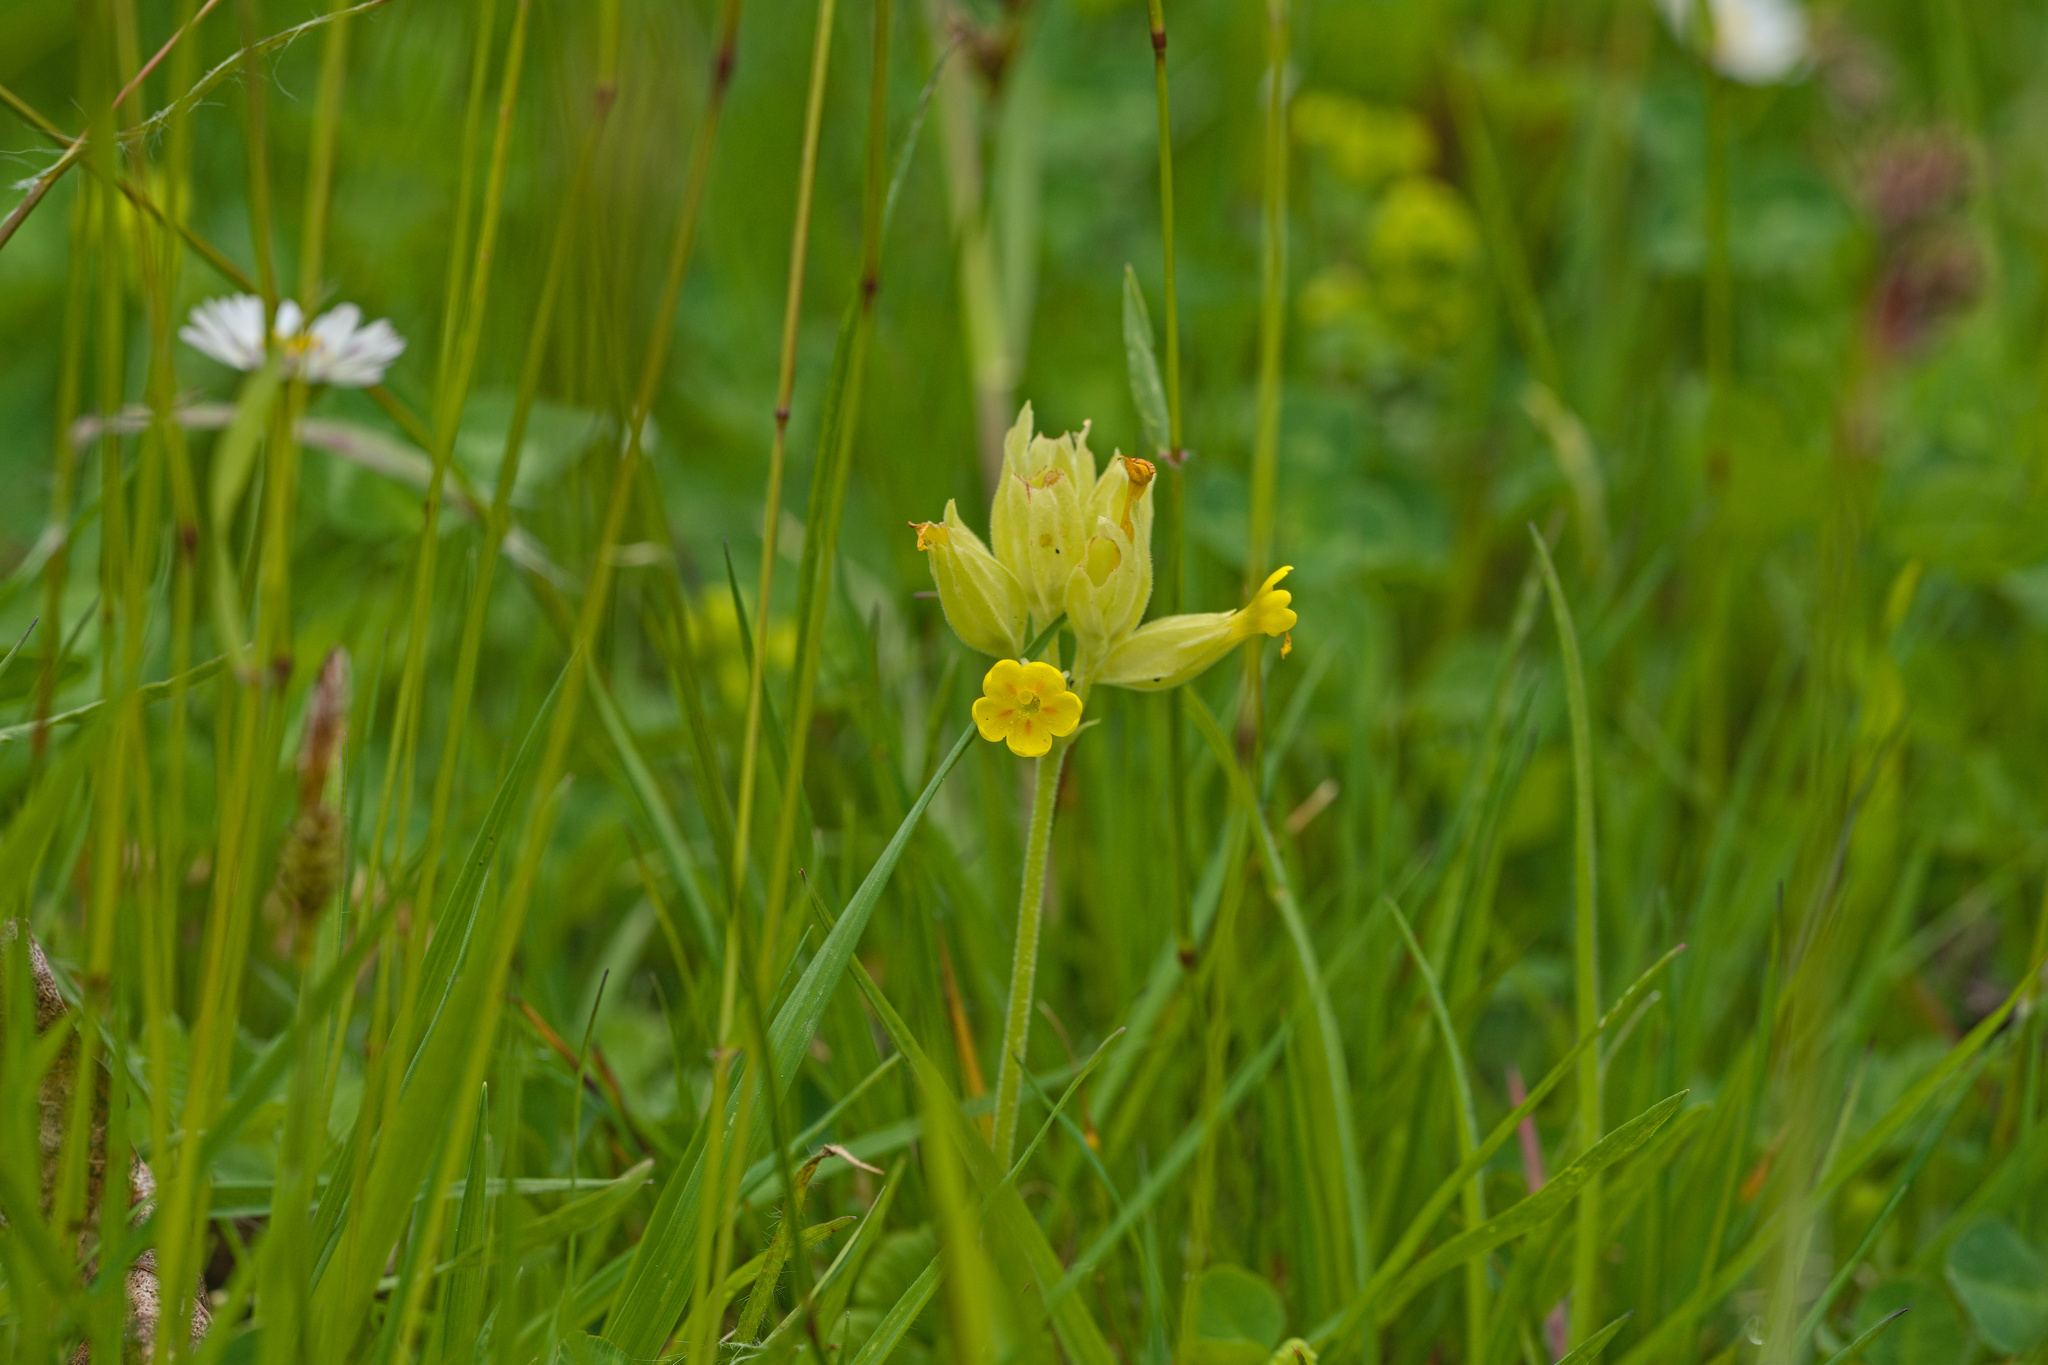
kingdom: Plantae
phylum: Tracheophyta
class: Magnoliopsida
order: Ericales
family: Primulaceae
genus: Primula
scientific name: Primula veris
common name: Cowslip
